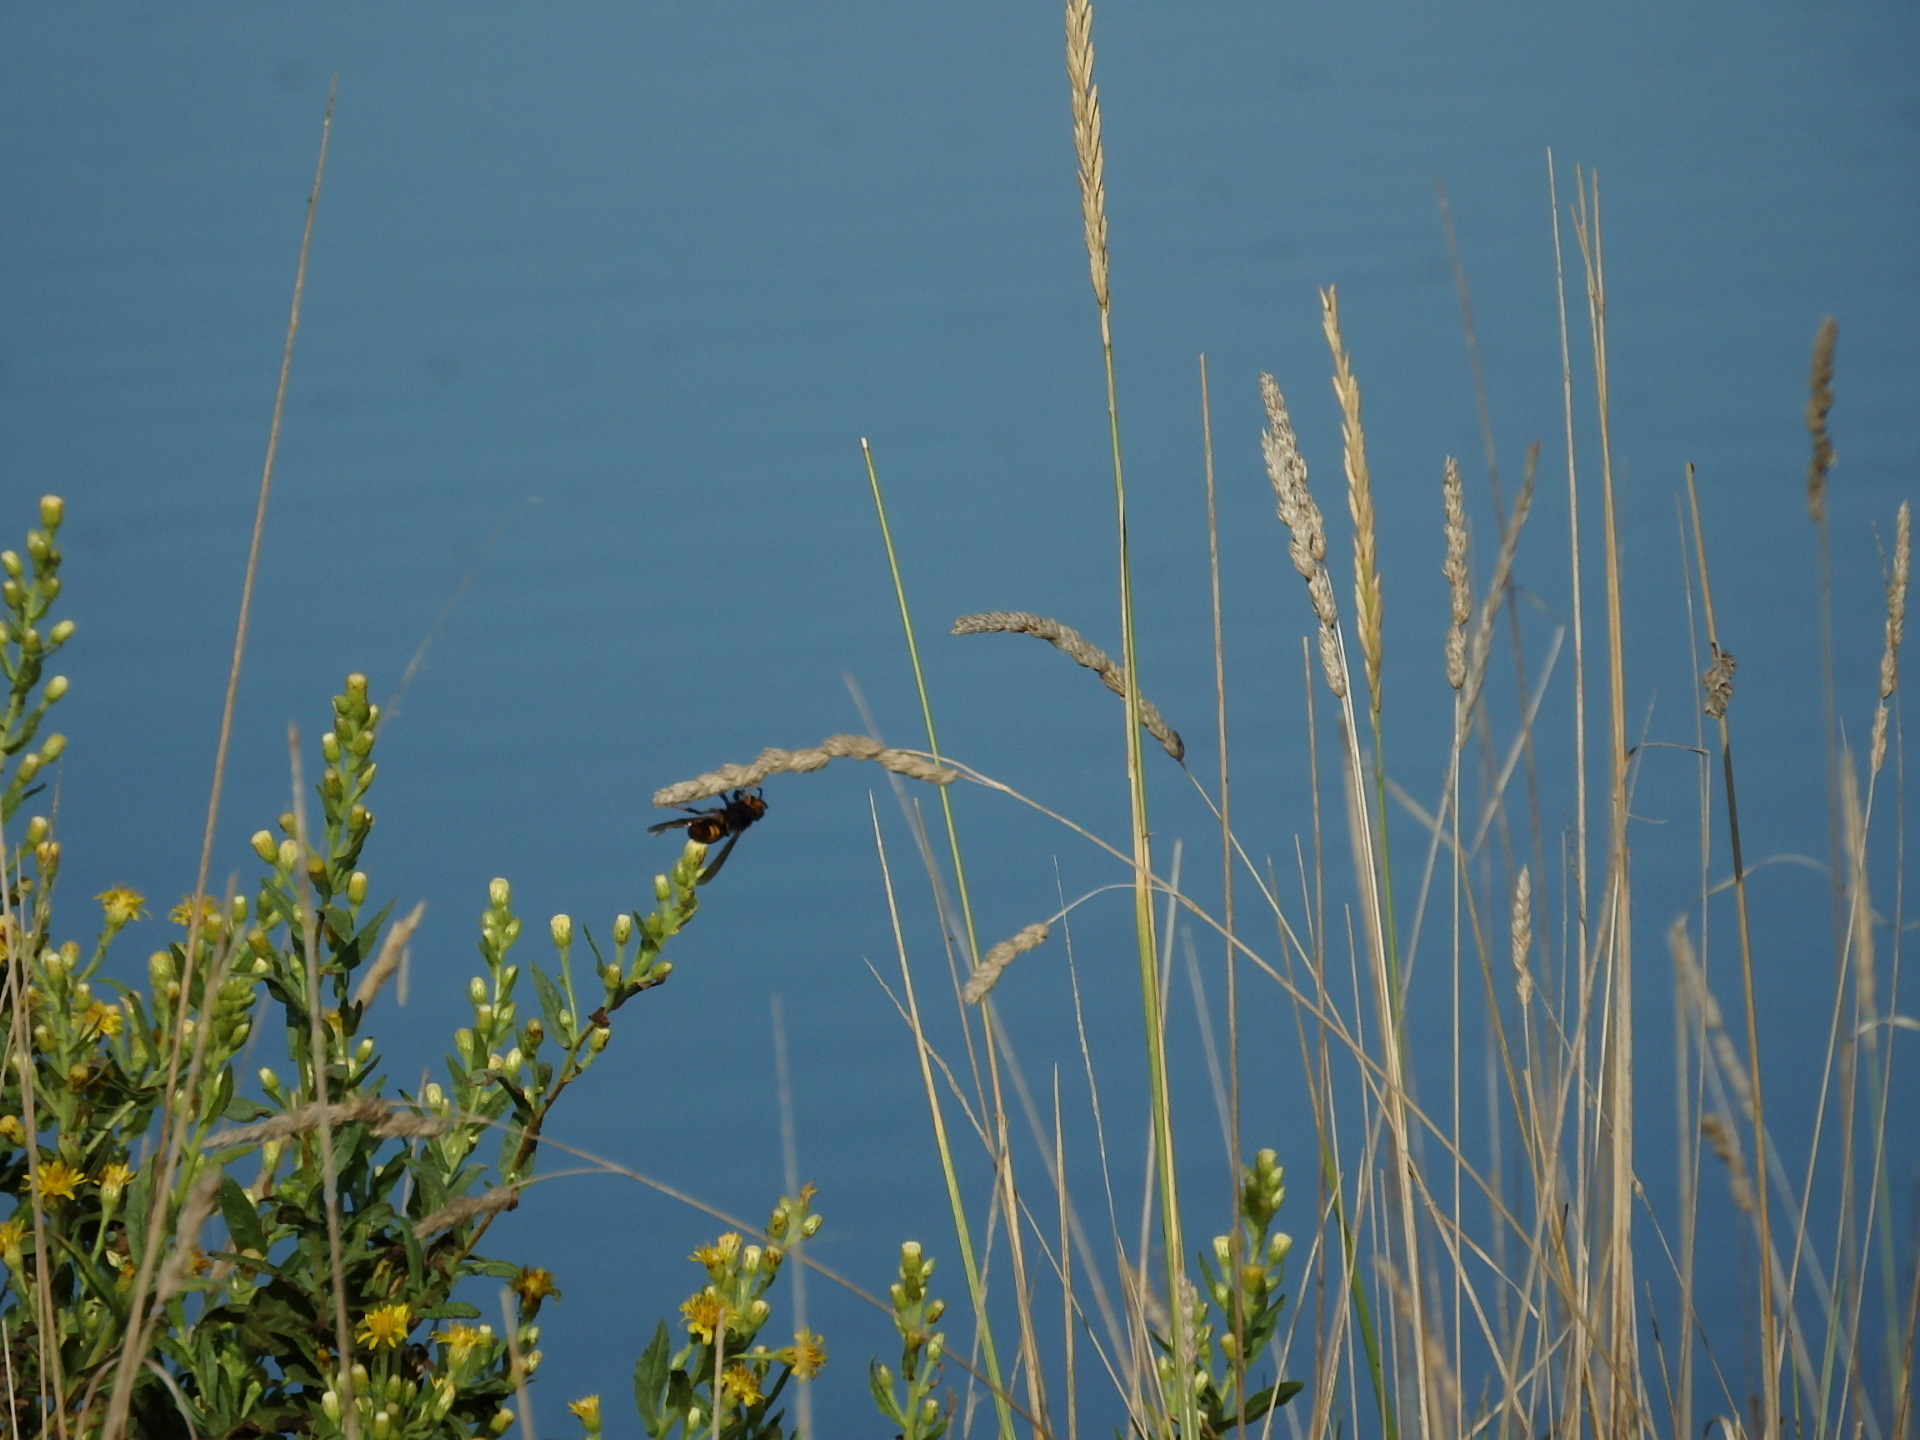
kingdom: Animalia
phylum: Arthropoda
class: Insecta
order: Hymenoptera
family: Vespidae
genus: Vespa
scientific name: Vespa velutina
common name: Asian hornet
